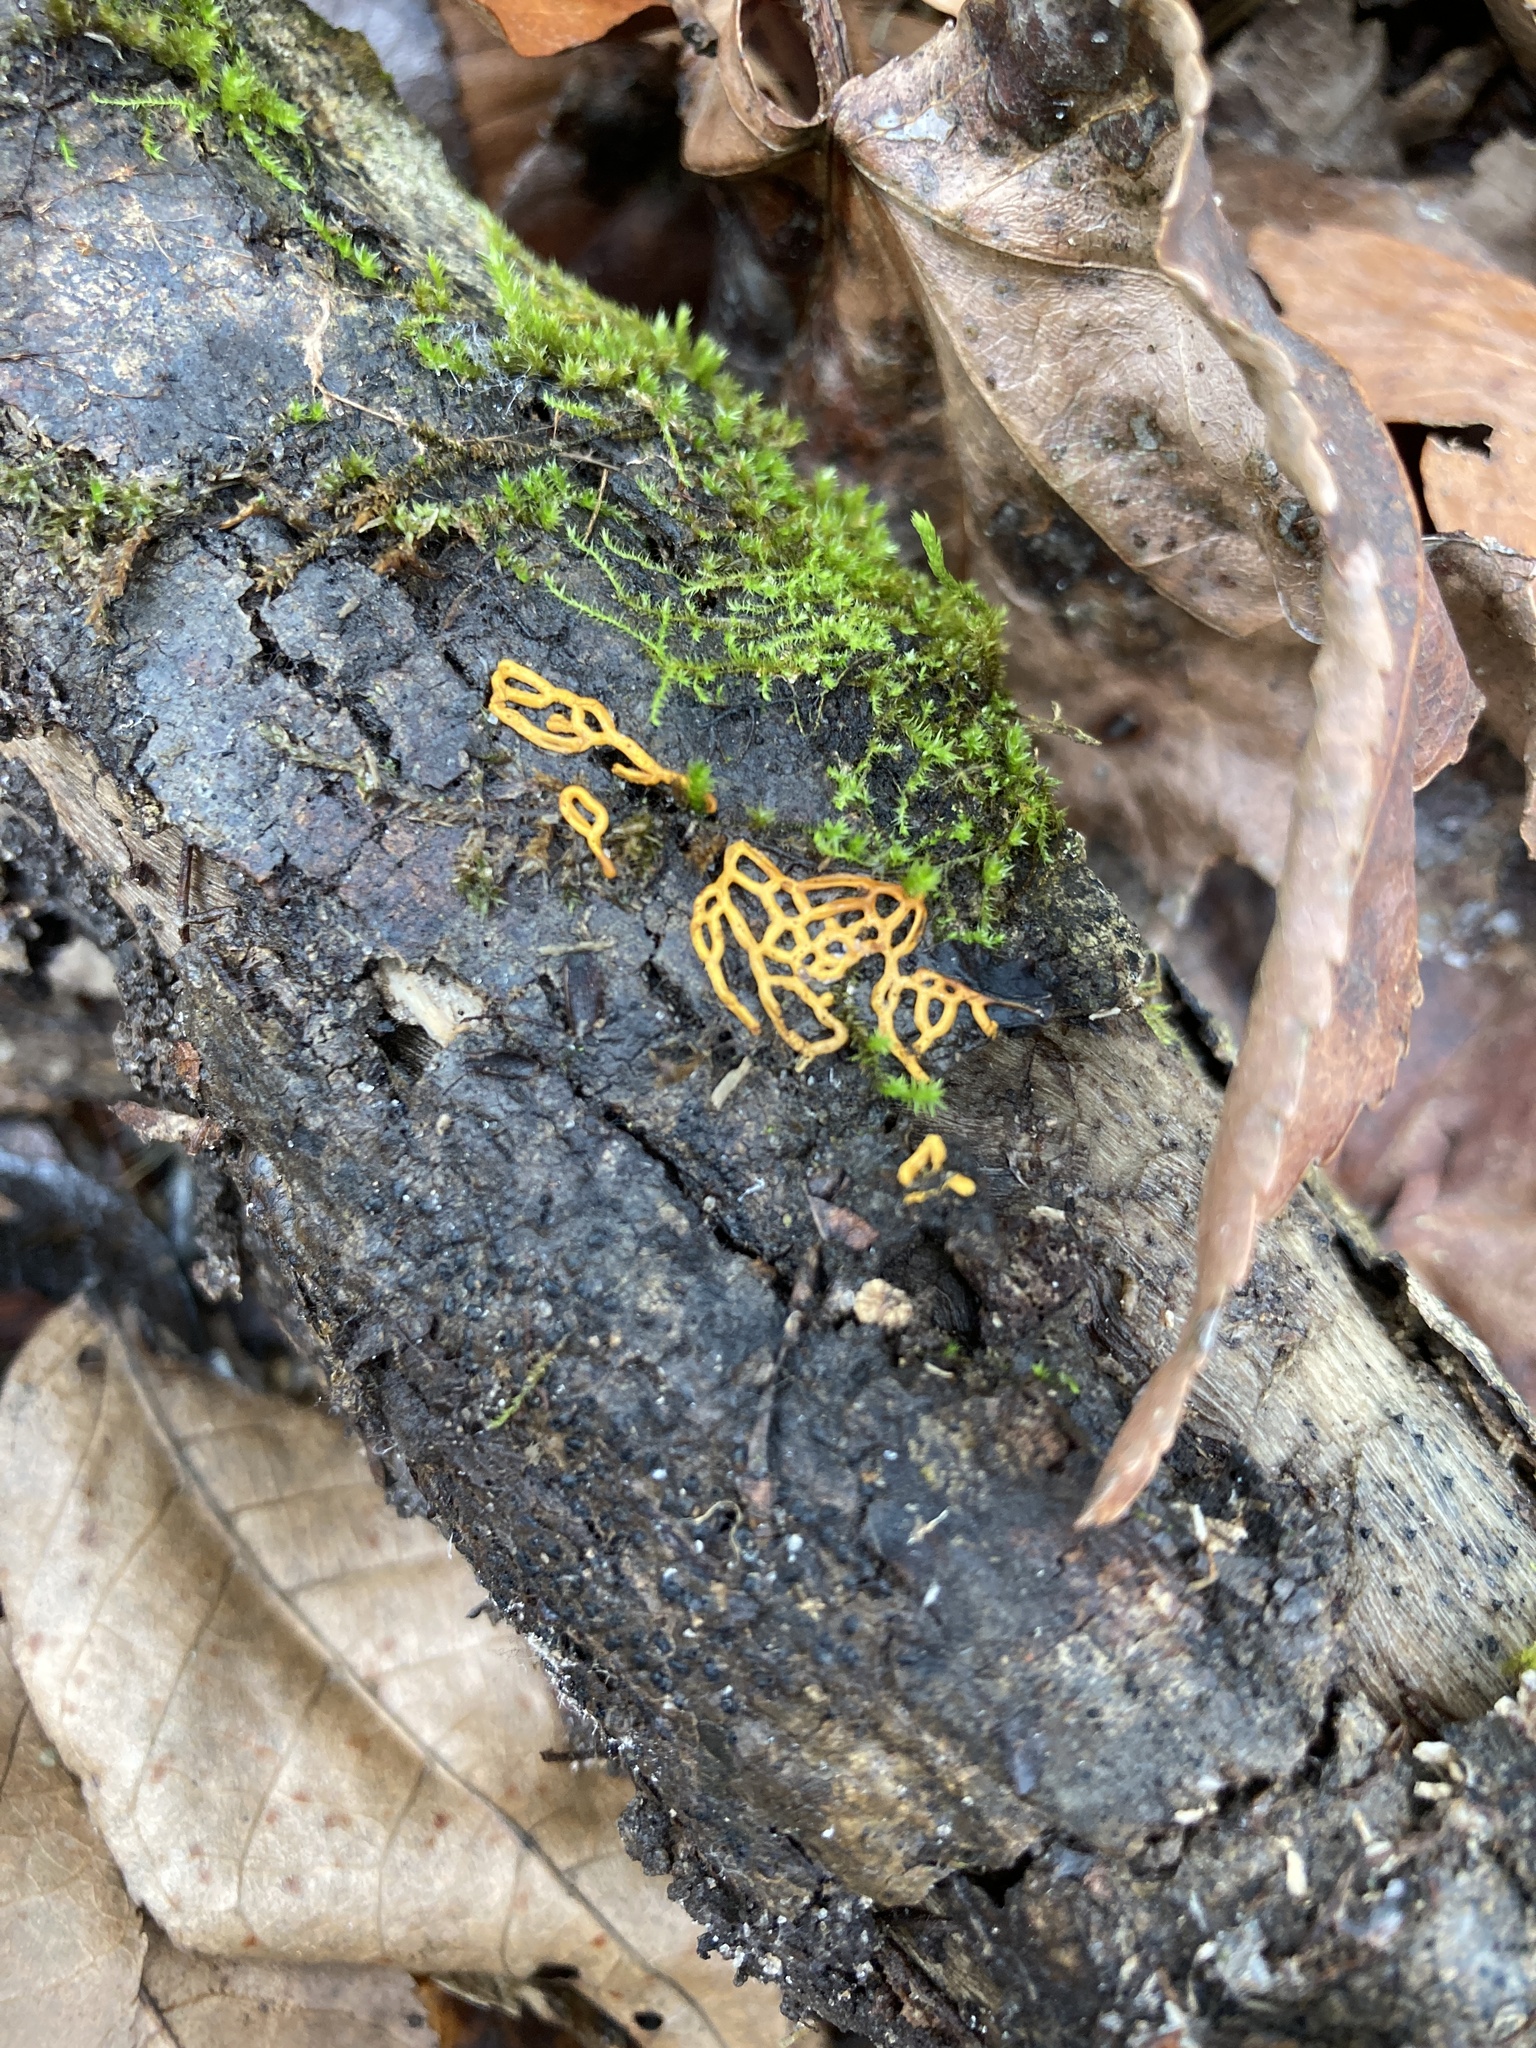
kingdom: Protozoa
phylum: Mycetozoa
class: Myxomycetes
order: Trichiales
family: Arcyriaceae
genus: Hemitrichia
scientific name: Hemitrichia serpula
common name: Pretzel slime mold
